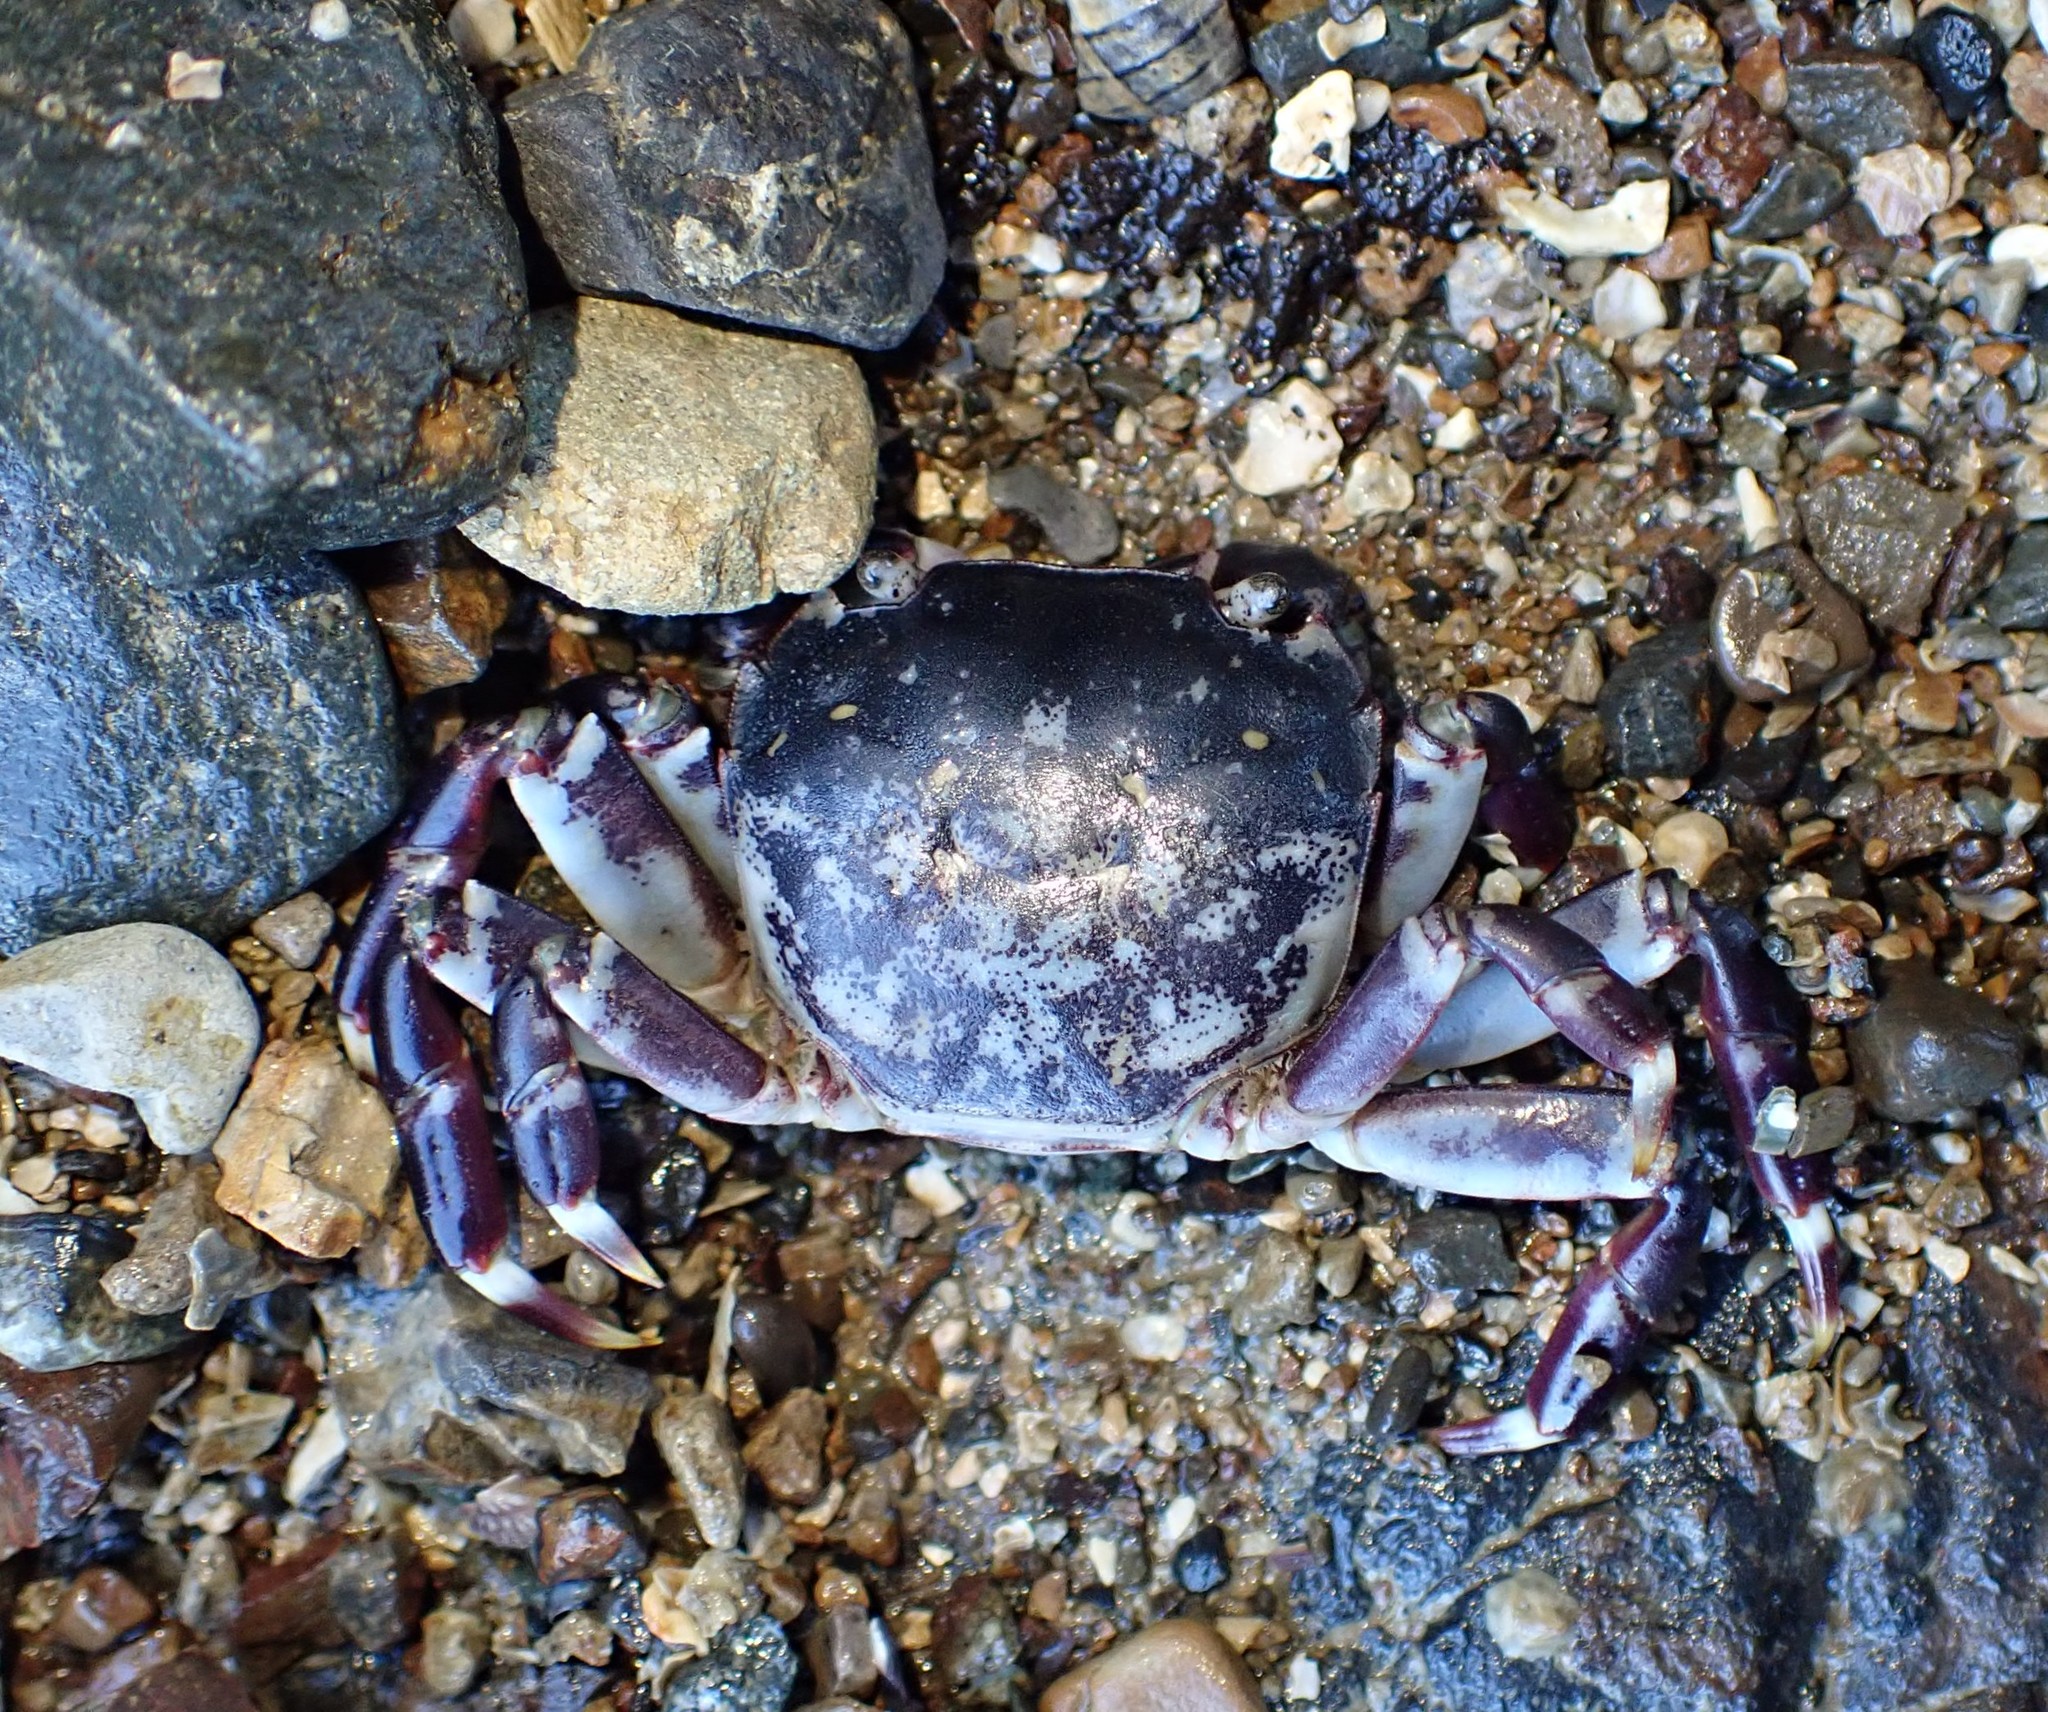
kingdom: Animalia
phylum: Arthropoda
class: Malacostraca
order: Decapoda
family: Varunidae
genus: Hemigrapsus
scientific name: Hemigrapsus sexdentatus
